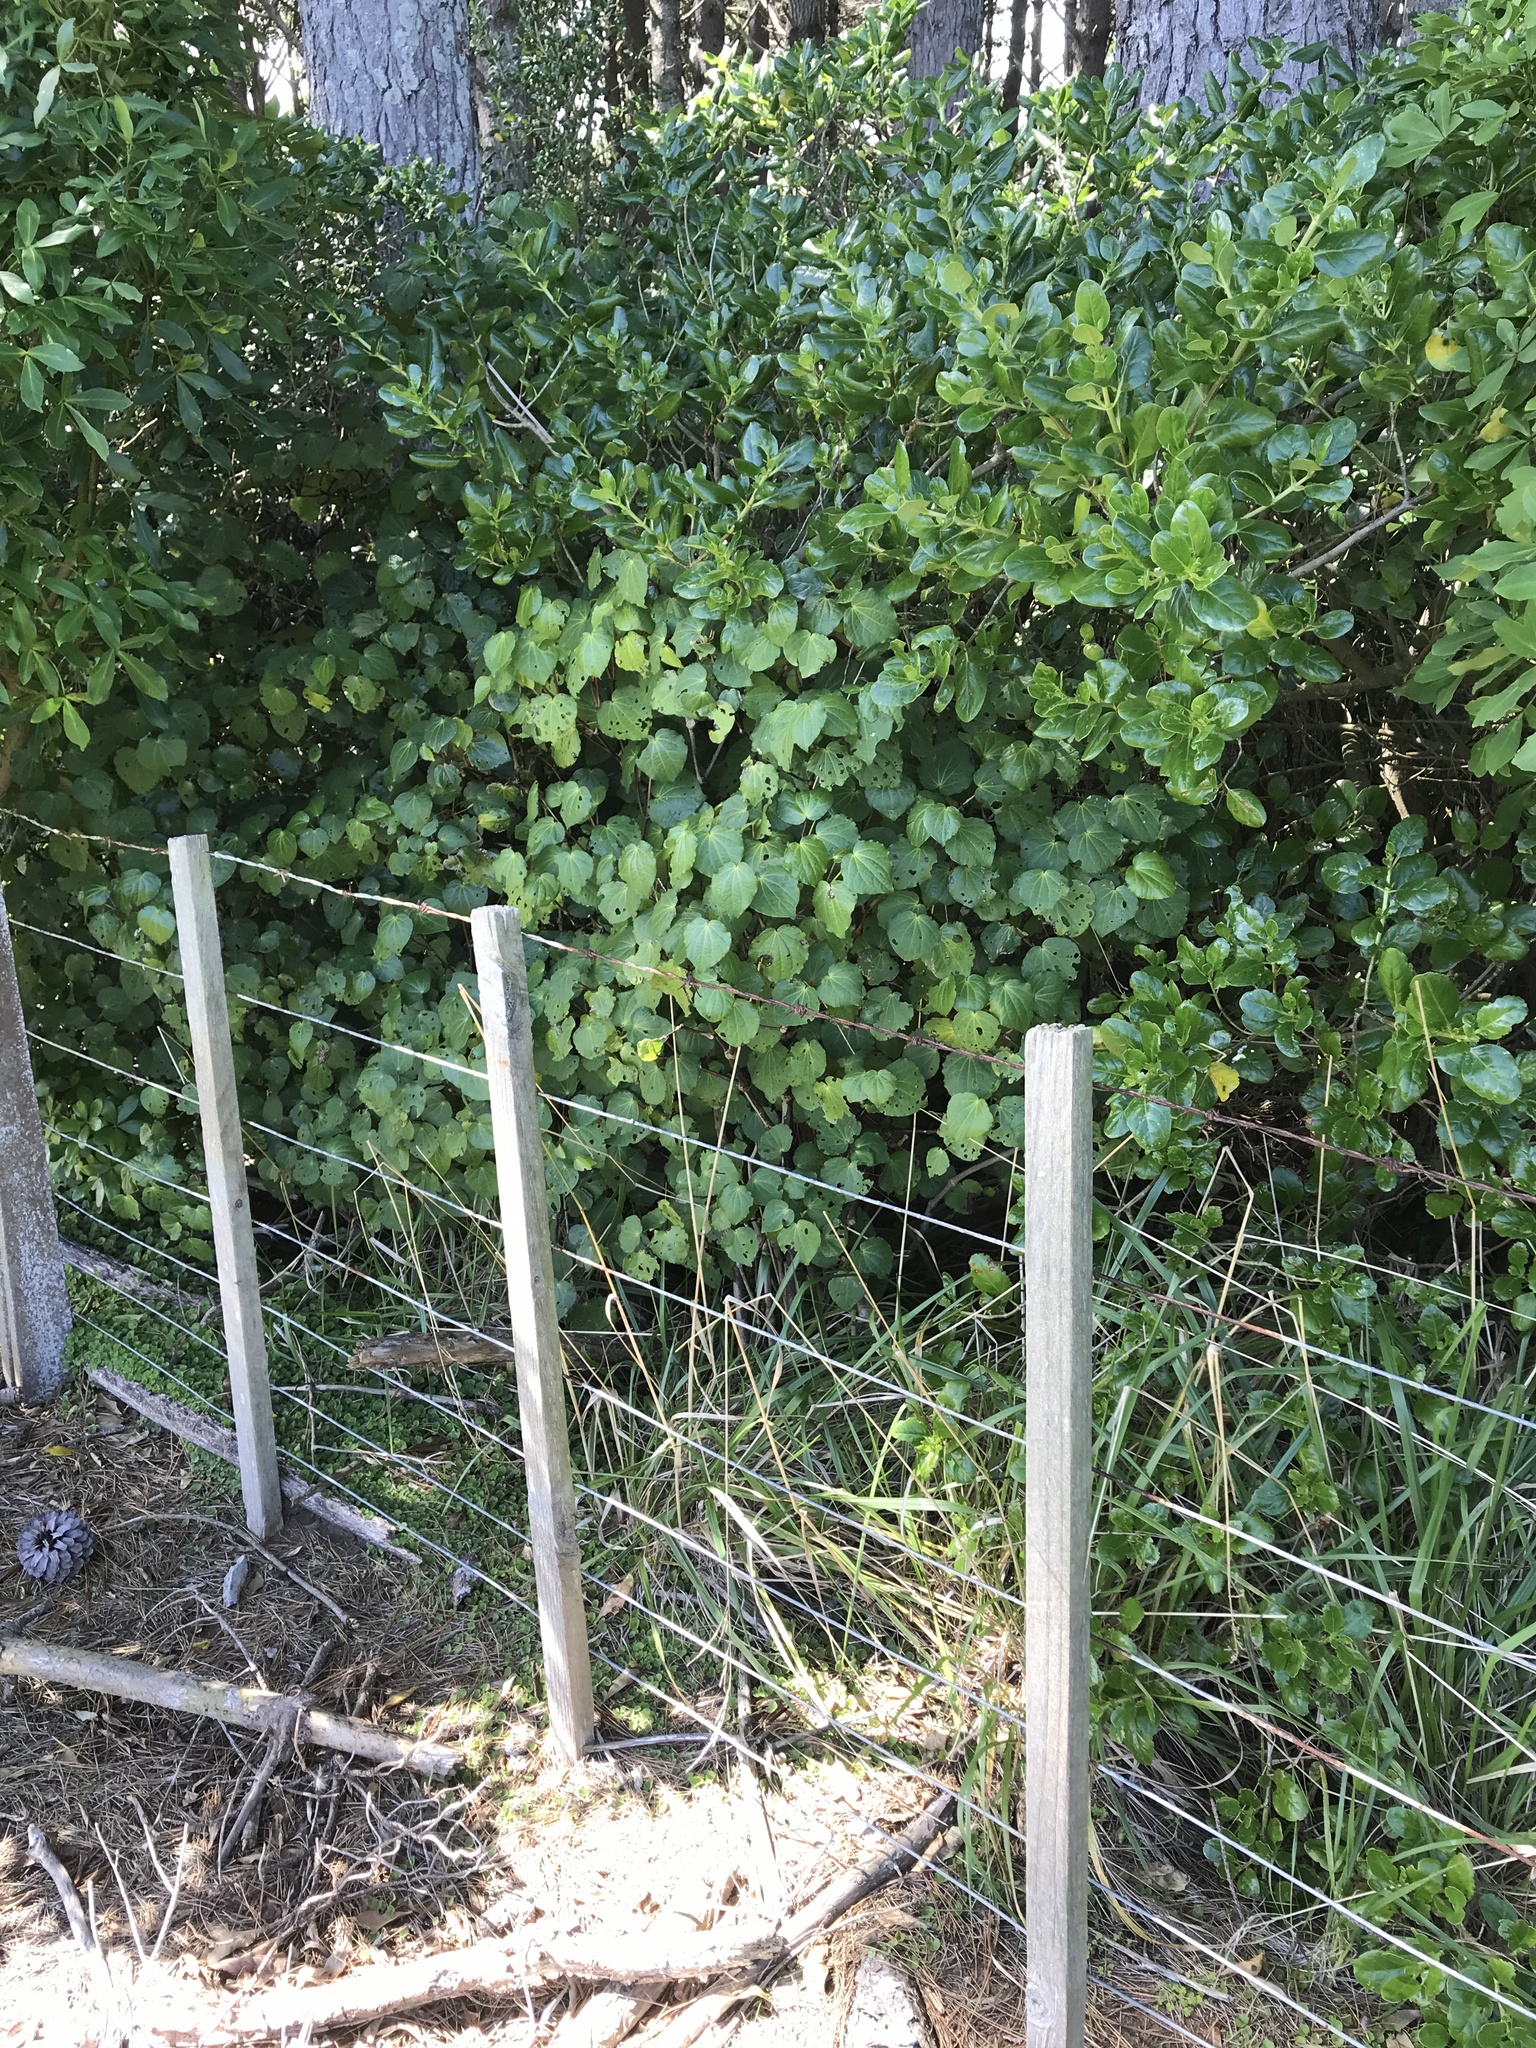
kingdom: Plantae
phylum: Tracheophyta
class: Magnoliopsida
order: Piperales
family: Piperaceae
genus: Macropiper
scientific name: Macropiper excelsum
